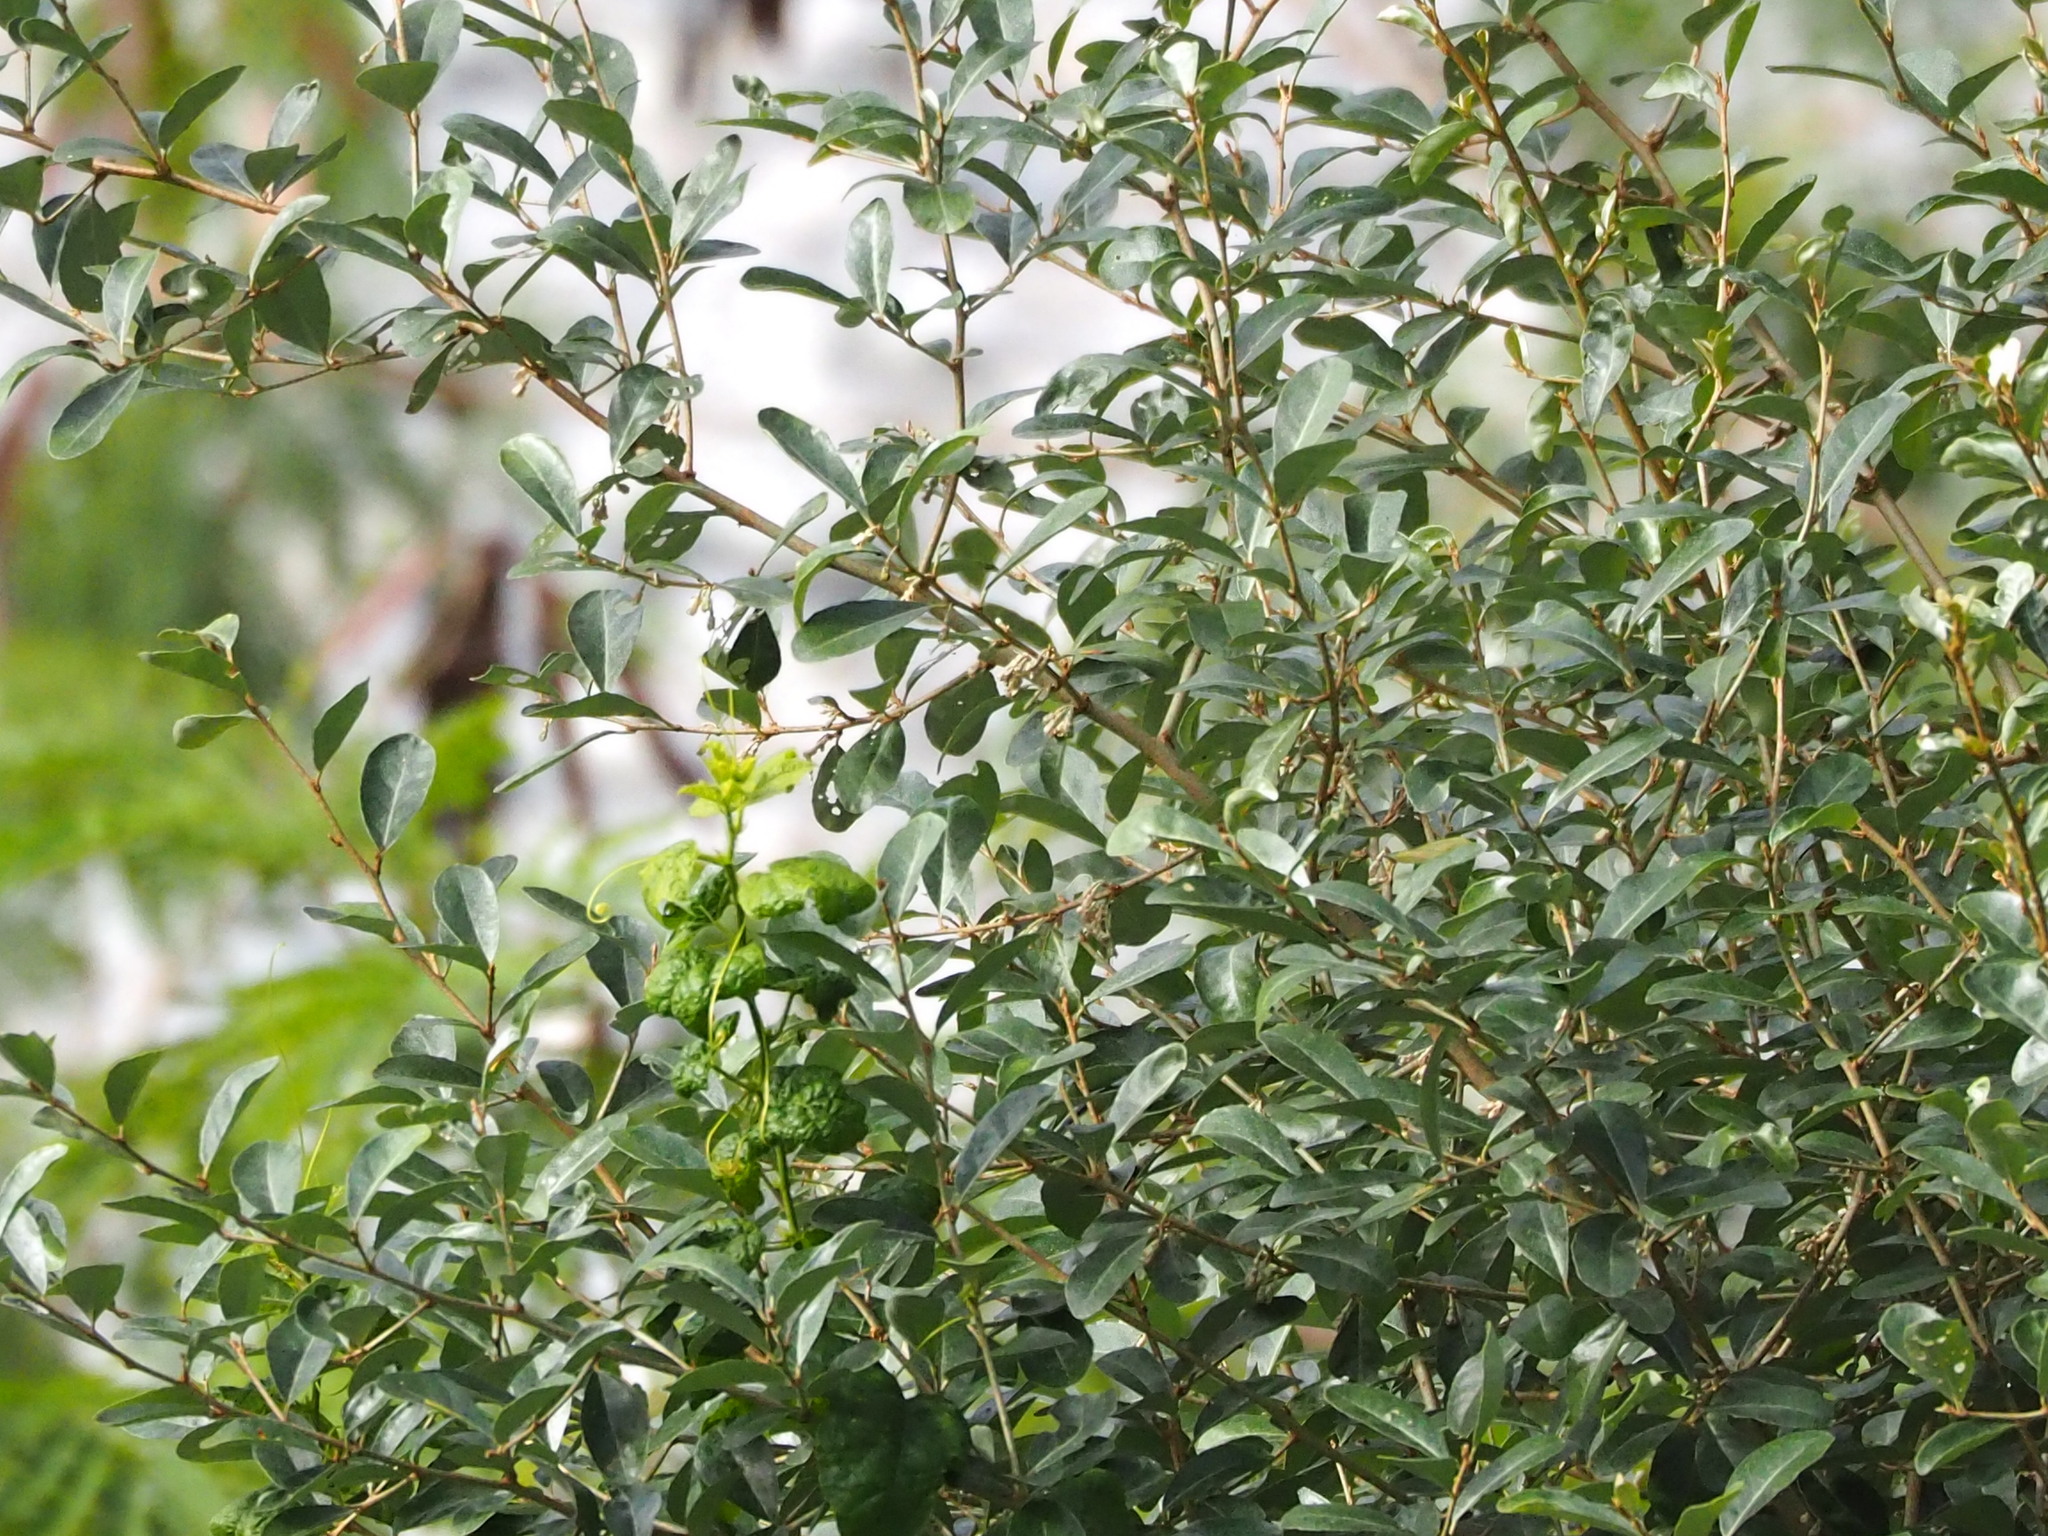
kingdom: Plantae
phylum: Tracheophyta
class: Magnoliopsida
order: Rosales
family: Elaeagnaceae
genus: Elaeagnus
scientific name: Elaeagnus oldhamii
